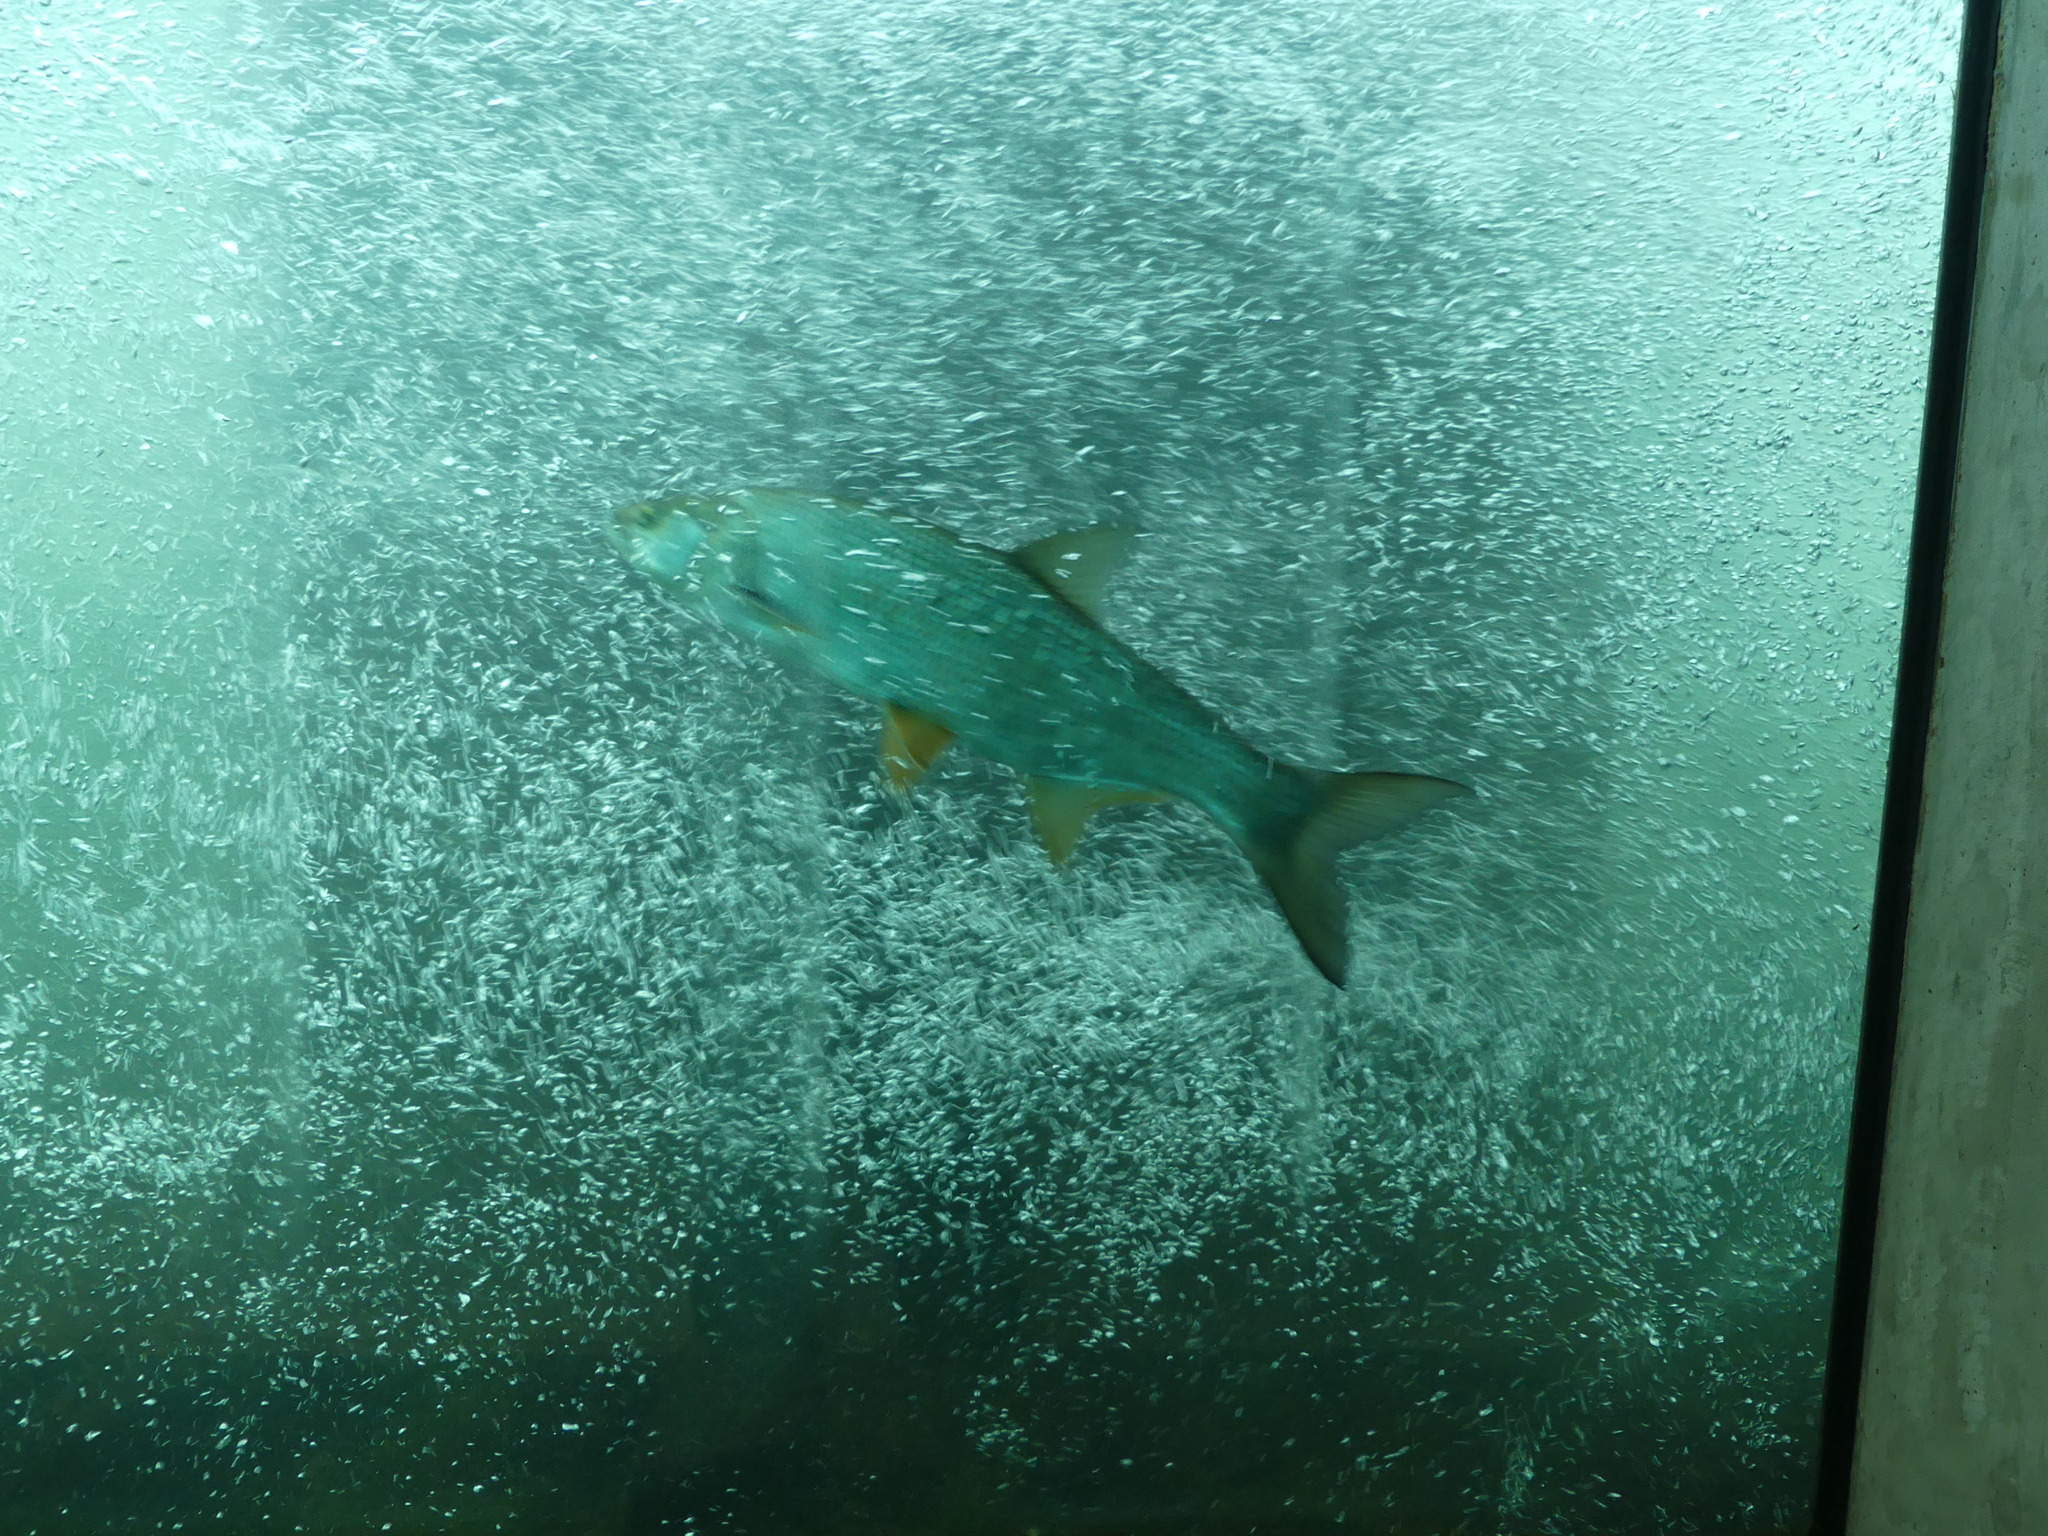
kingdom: Animalia
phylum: Chordata
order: Cypriniformes
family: Cyprinidae
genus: Leuciscus
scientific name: Leuciscus aspius
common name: Asp
